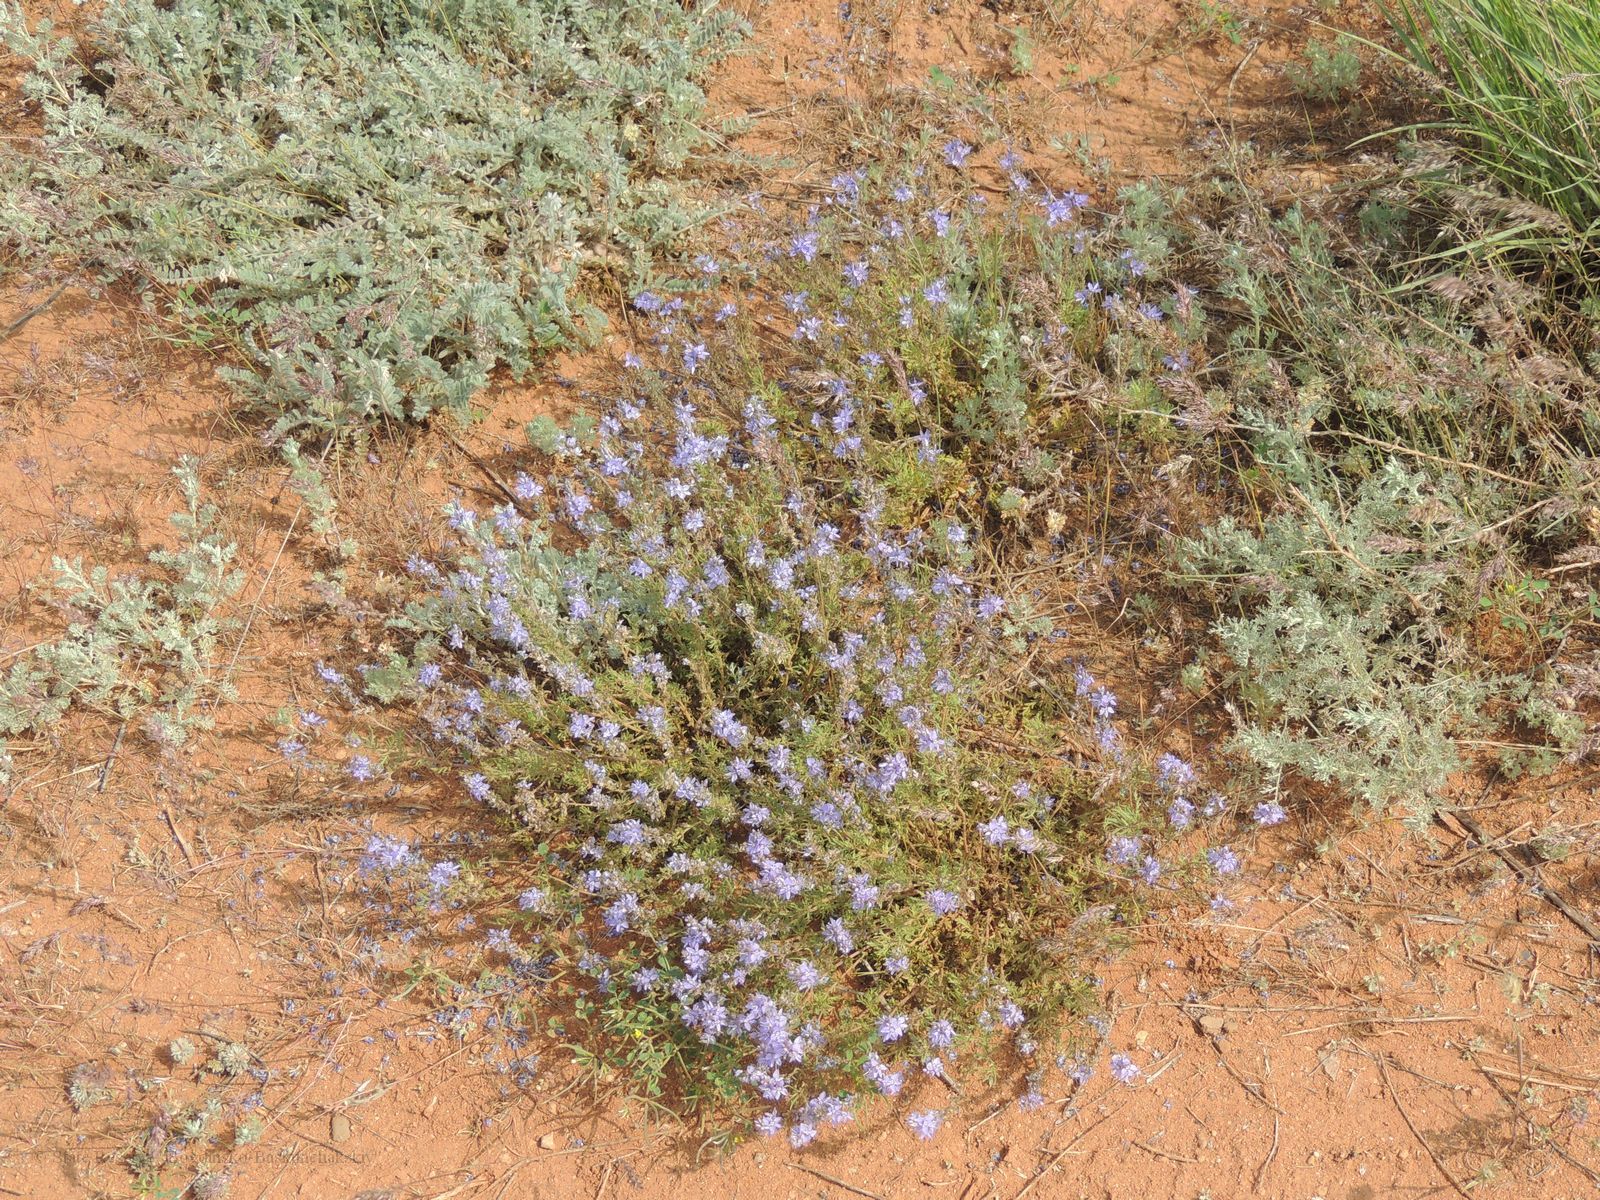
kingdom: Plantae
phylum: Tracheophyta
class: Magnoliopsida
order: Lamiales
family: Plantaginaceae
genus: Veronica
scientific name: Veronica multifida
